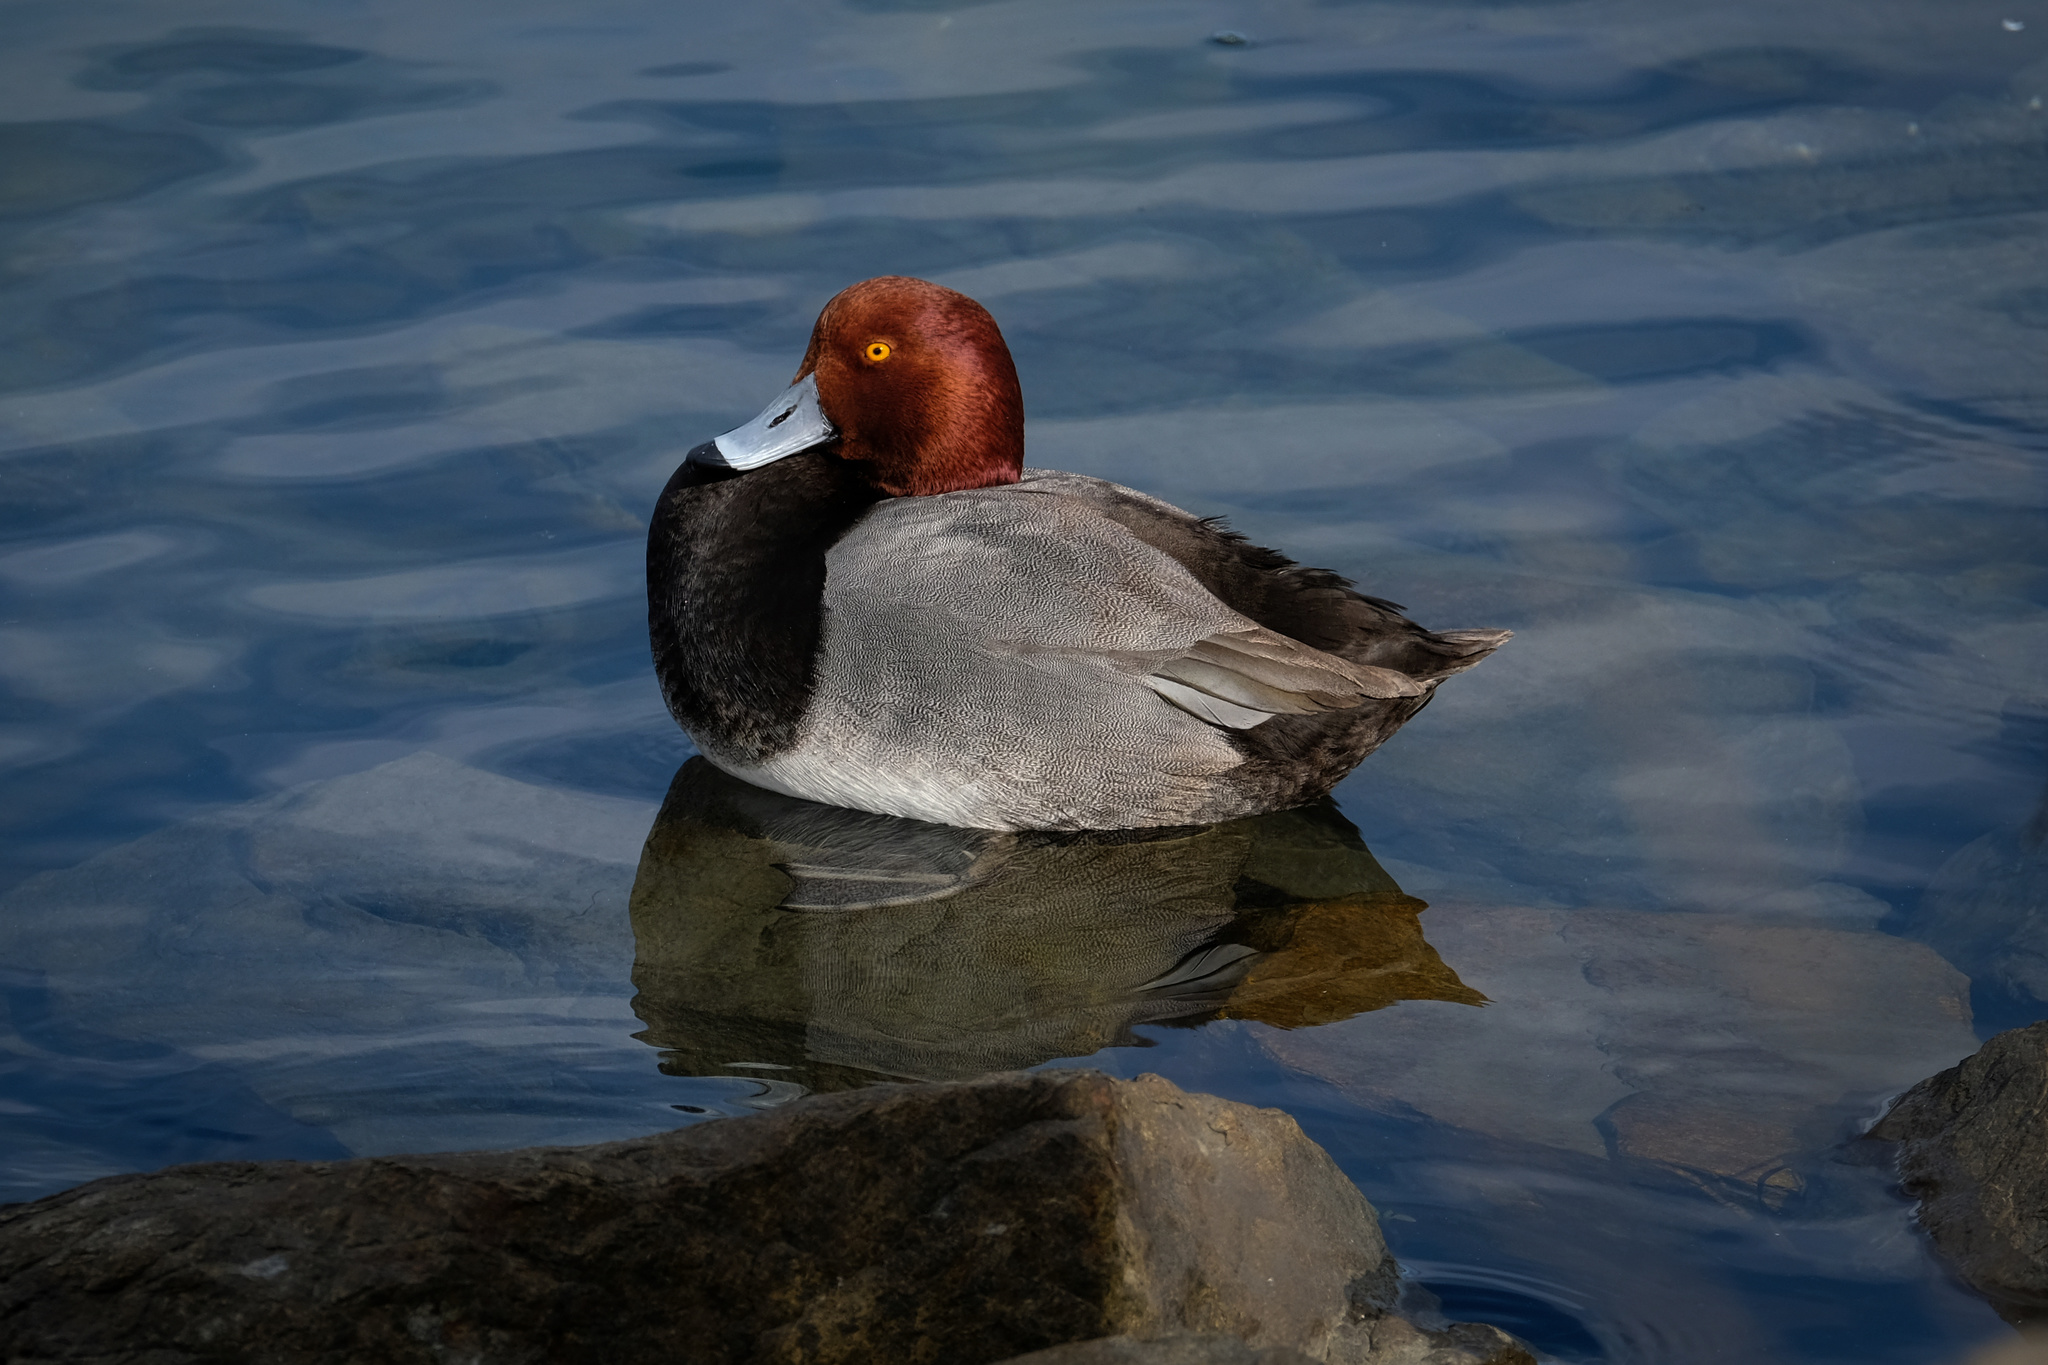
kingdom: Animalia
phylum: Chordata
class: Aves
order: Anseriformes
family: Anatidae
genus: Aythya
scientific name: Aythya americana
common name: Redhead
